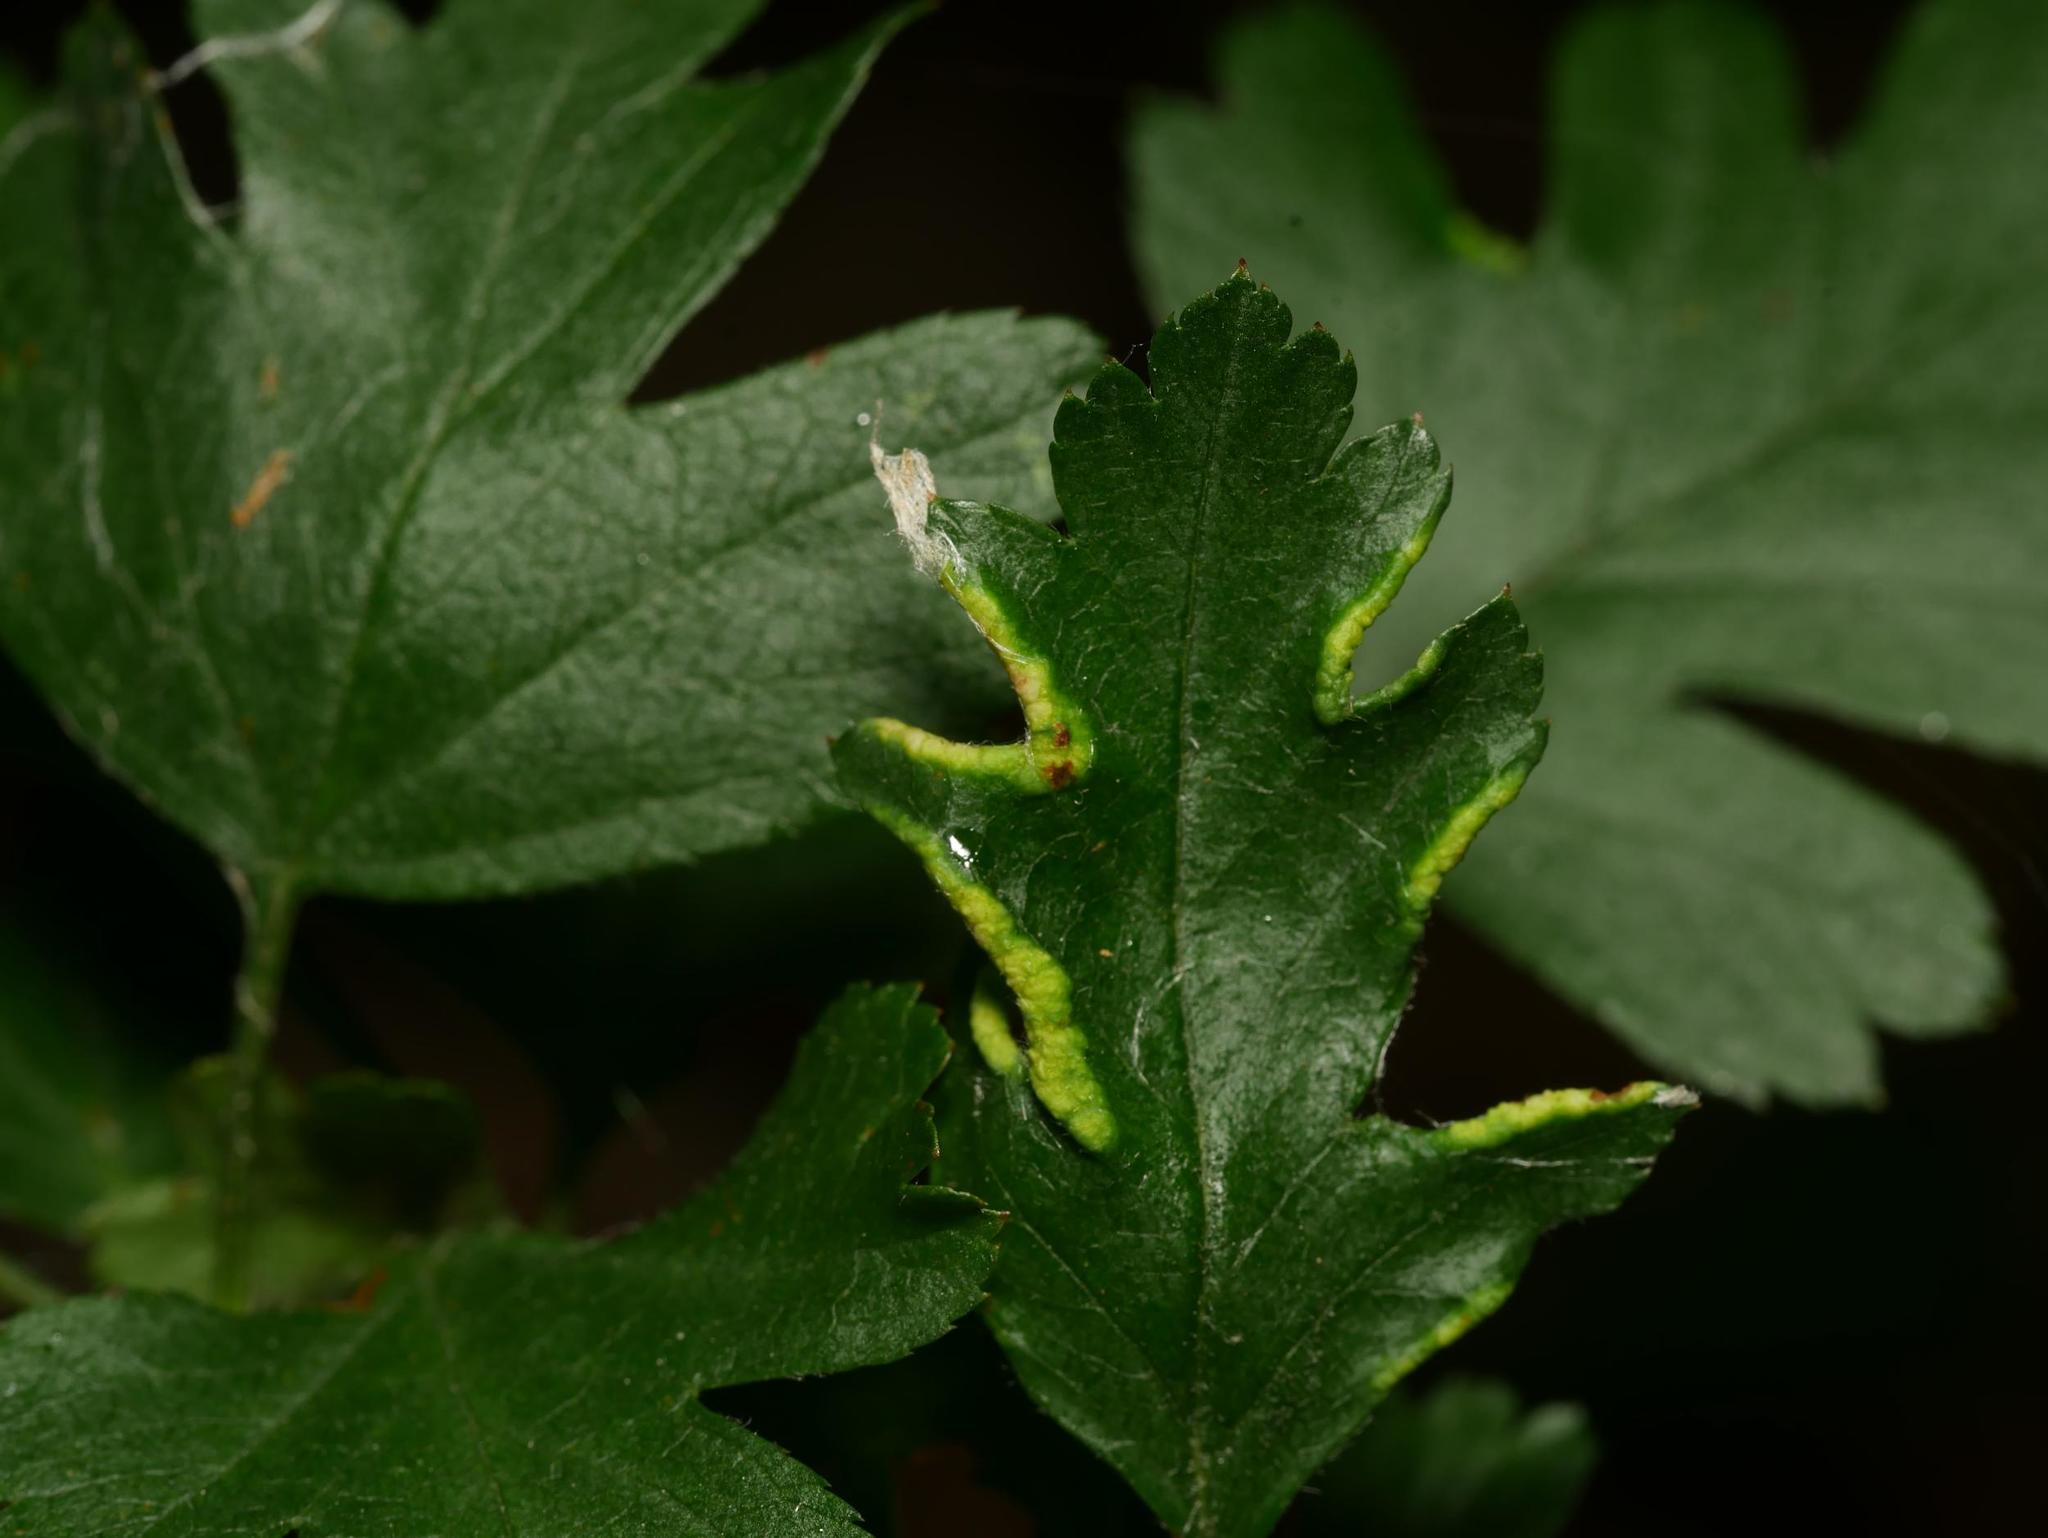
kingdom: Animalia
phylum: Arthropoda
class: Arachnida
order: Trombidiformes
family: Eriophyidae
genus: Phyllocoptes
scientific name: Phyllocoptes goniothorax
